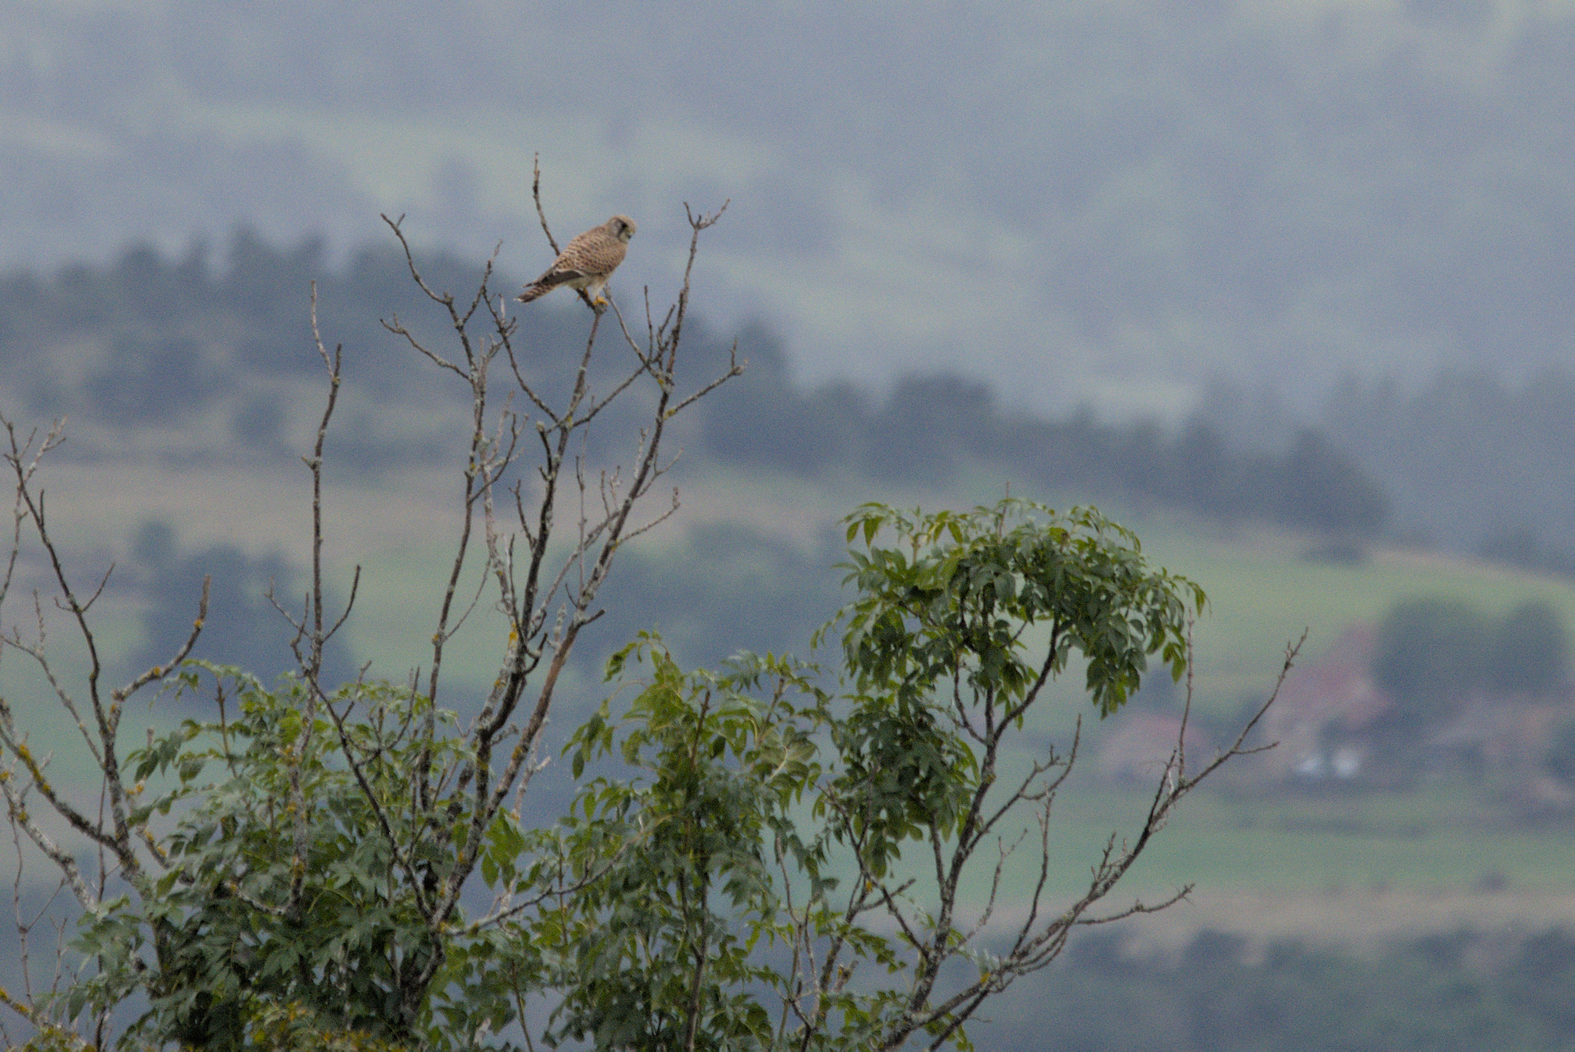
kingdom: Animalia
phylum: Chordata
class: Aves
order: Falconiformes
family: Falconidae
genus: Falco
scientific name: Falco tinnunculus
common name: Common kestrel
